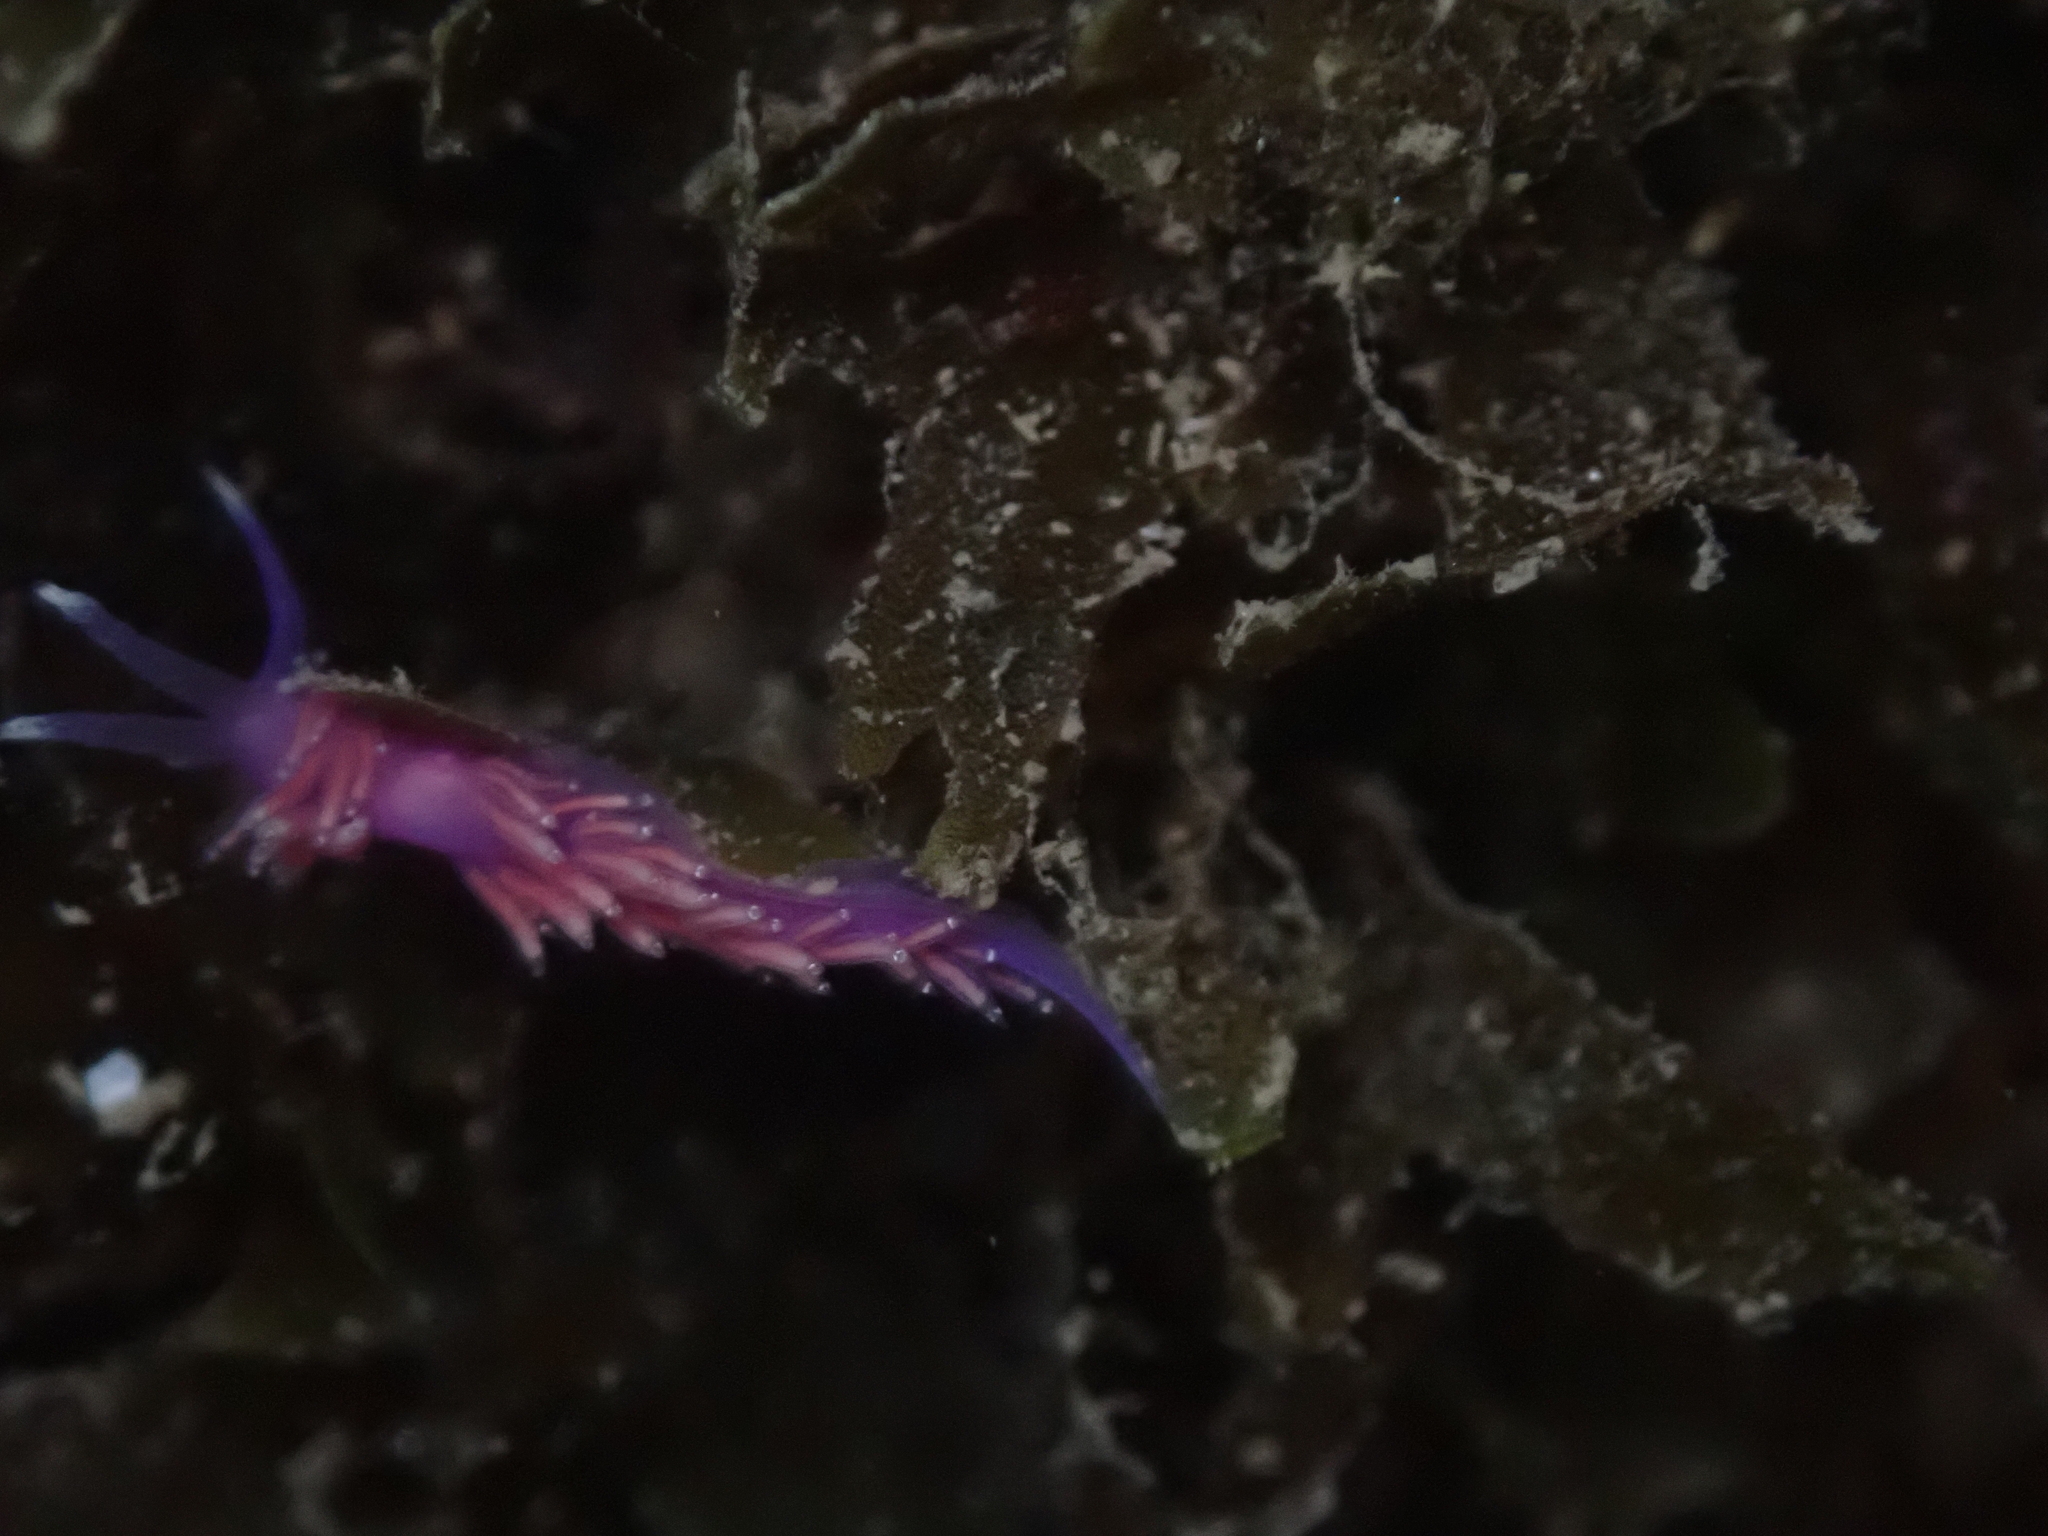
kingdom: Animalia
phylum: Mollusca
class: Gastropoda
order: Nudibranchia
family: Flabellinidae
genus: Edmundsella
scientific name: Edmundsella pedata
